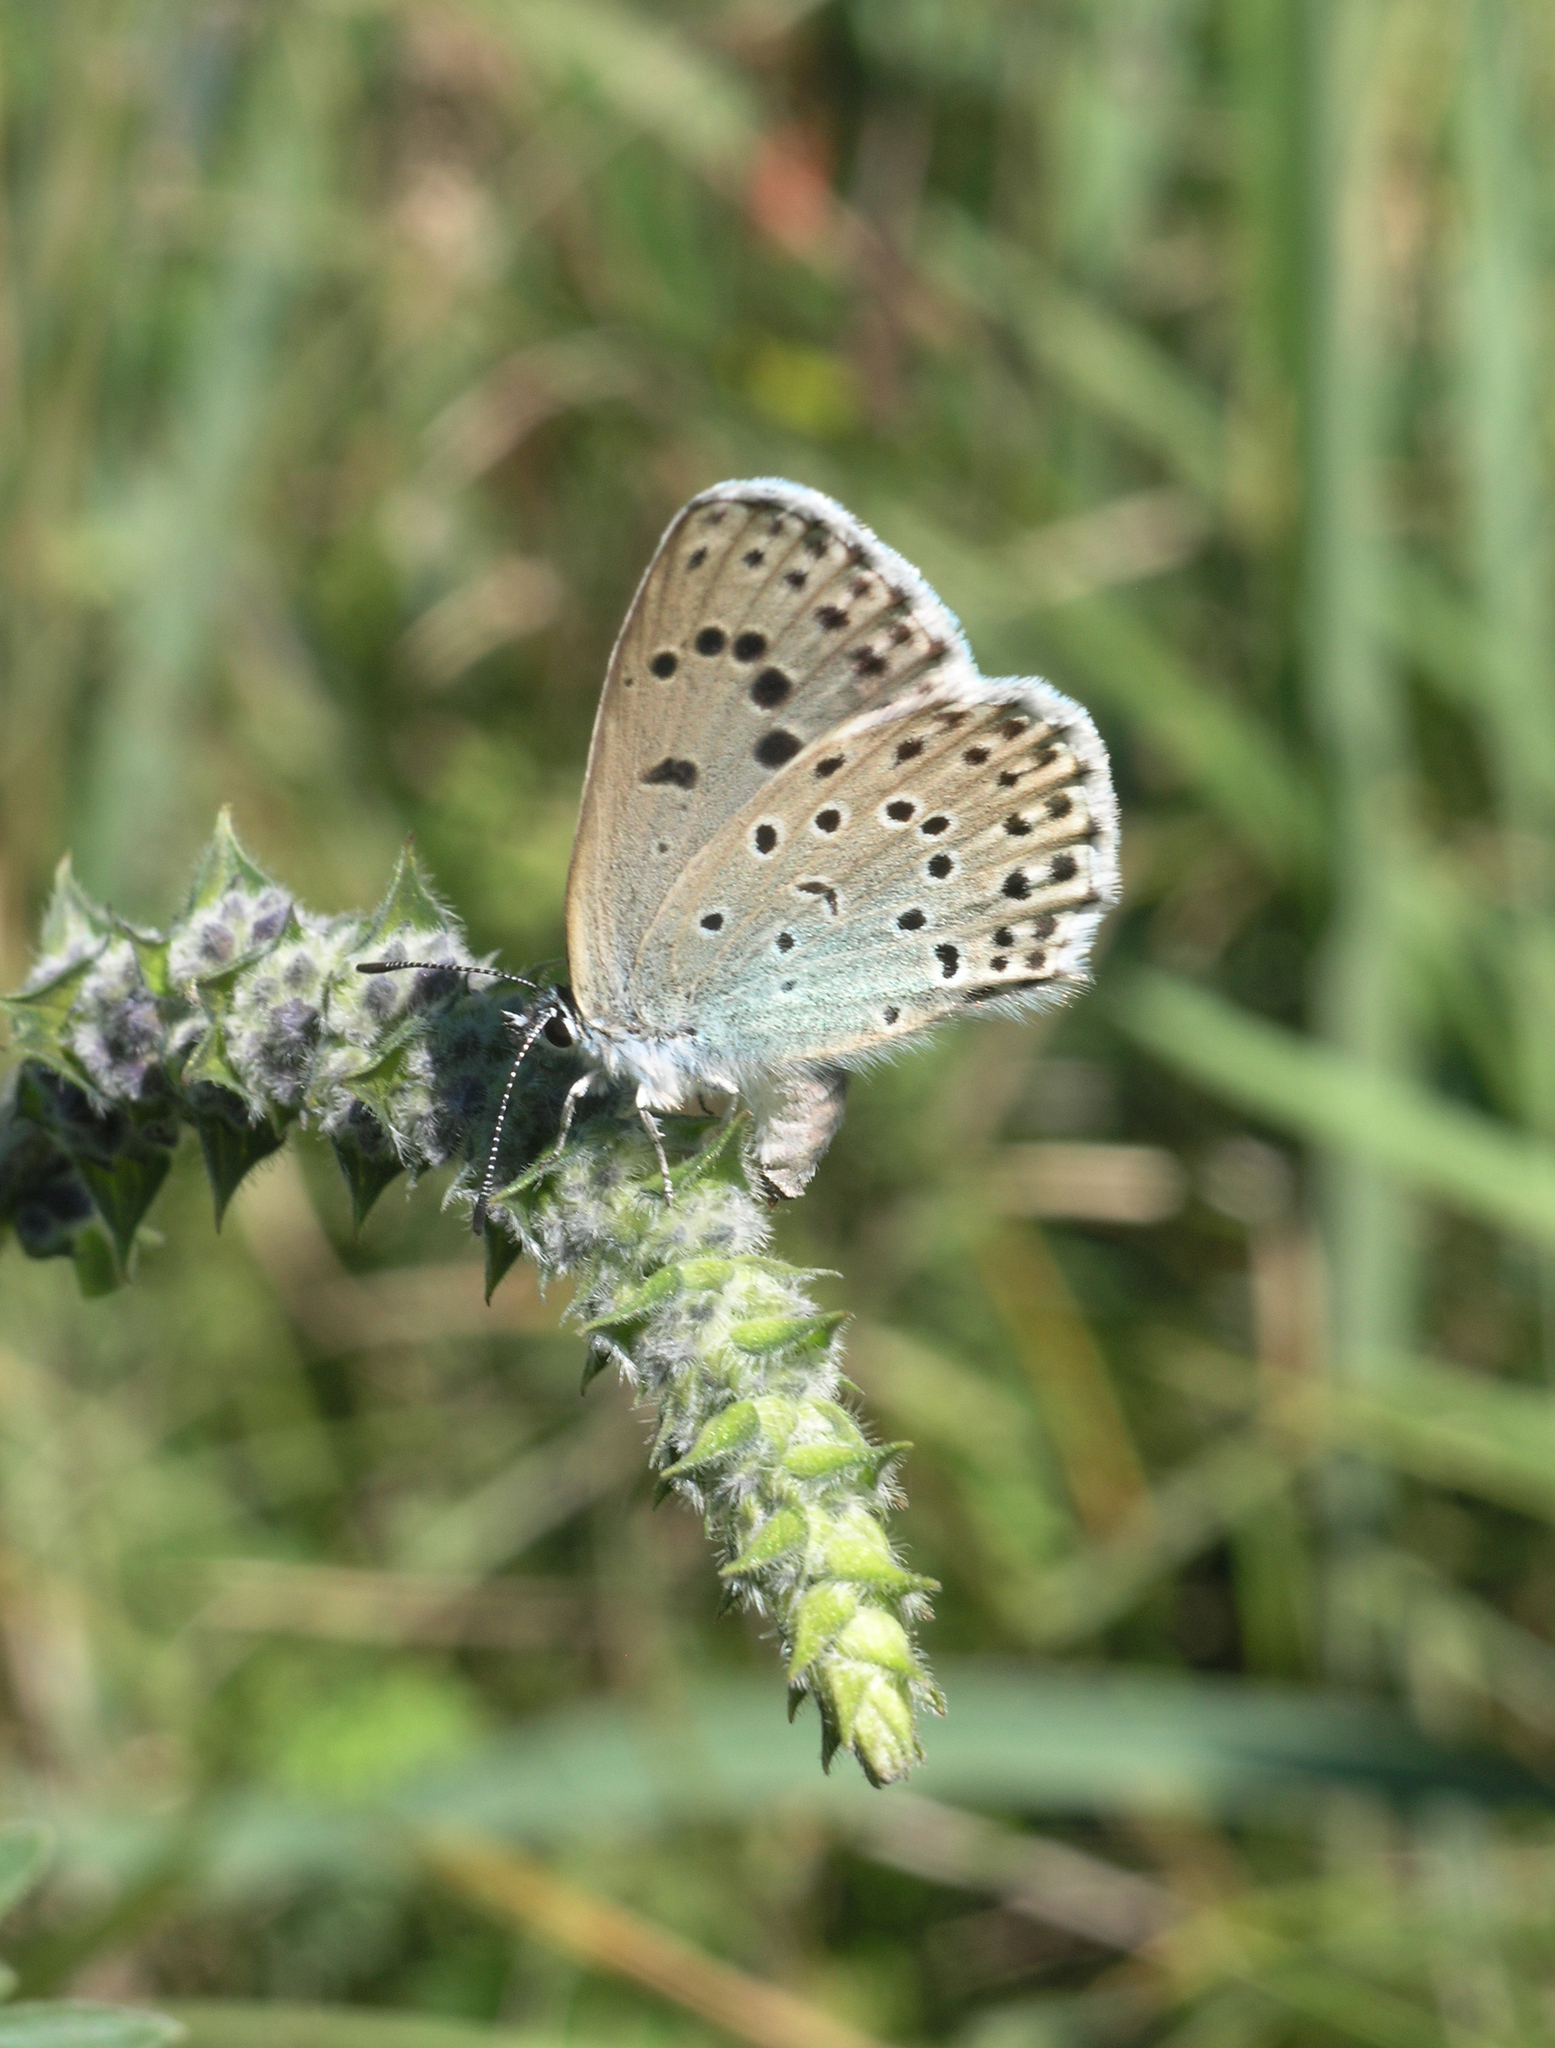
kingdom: Plantae
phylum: Tracheophyta
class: Magnoliopsida
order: Lamiales
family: Lamiaceae
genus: Nepeta
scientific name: Nepeta multifida
